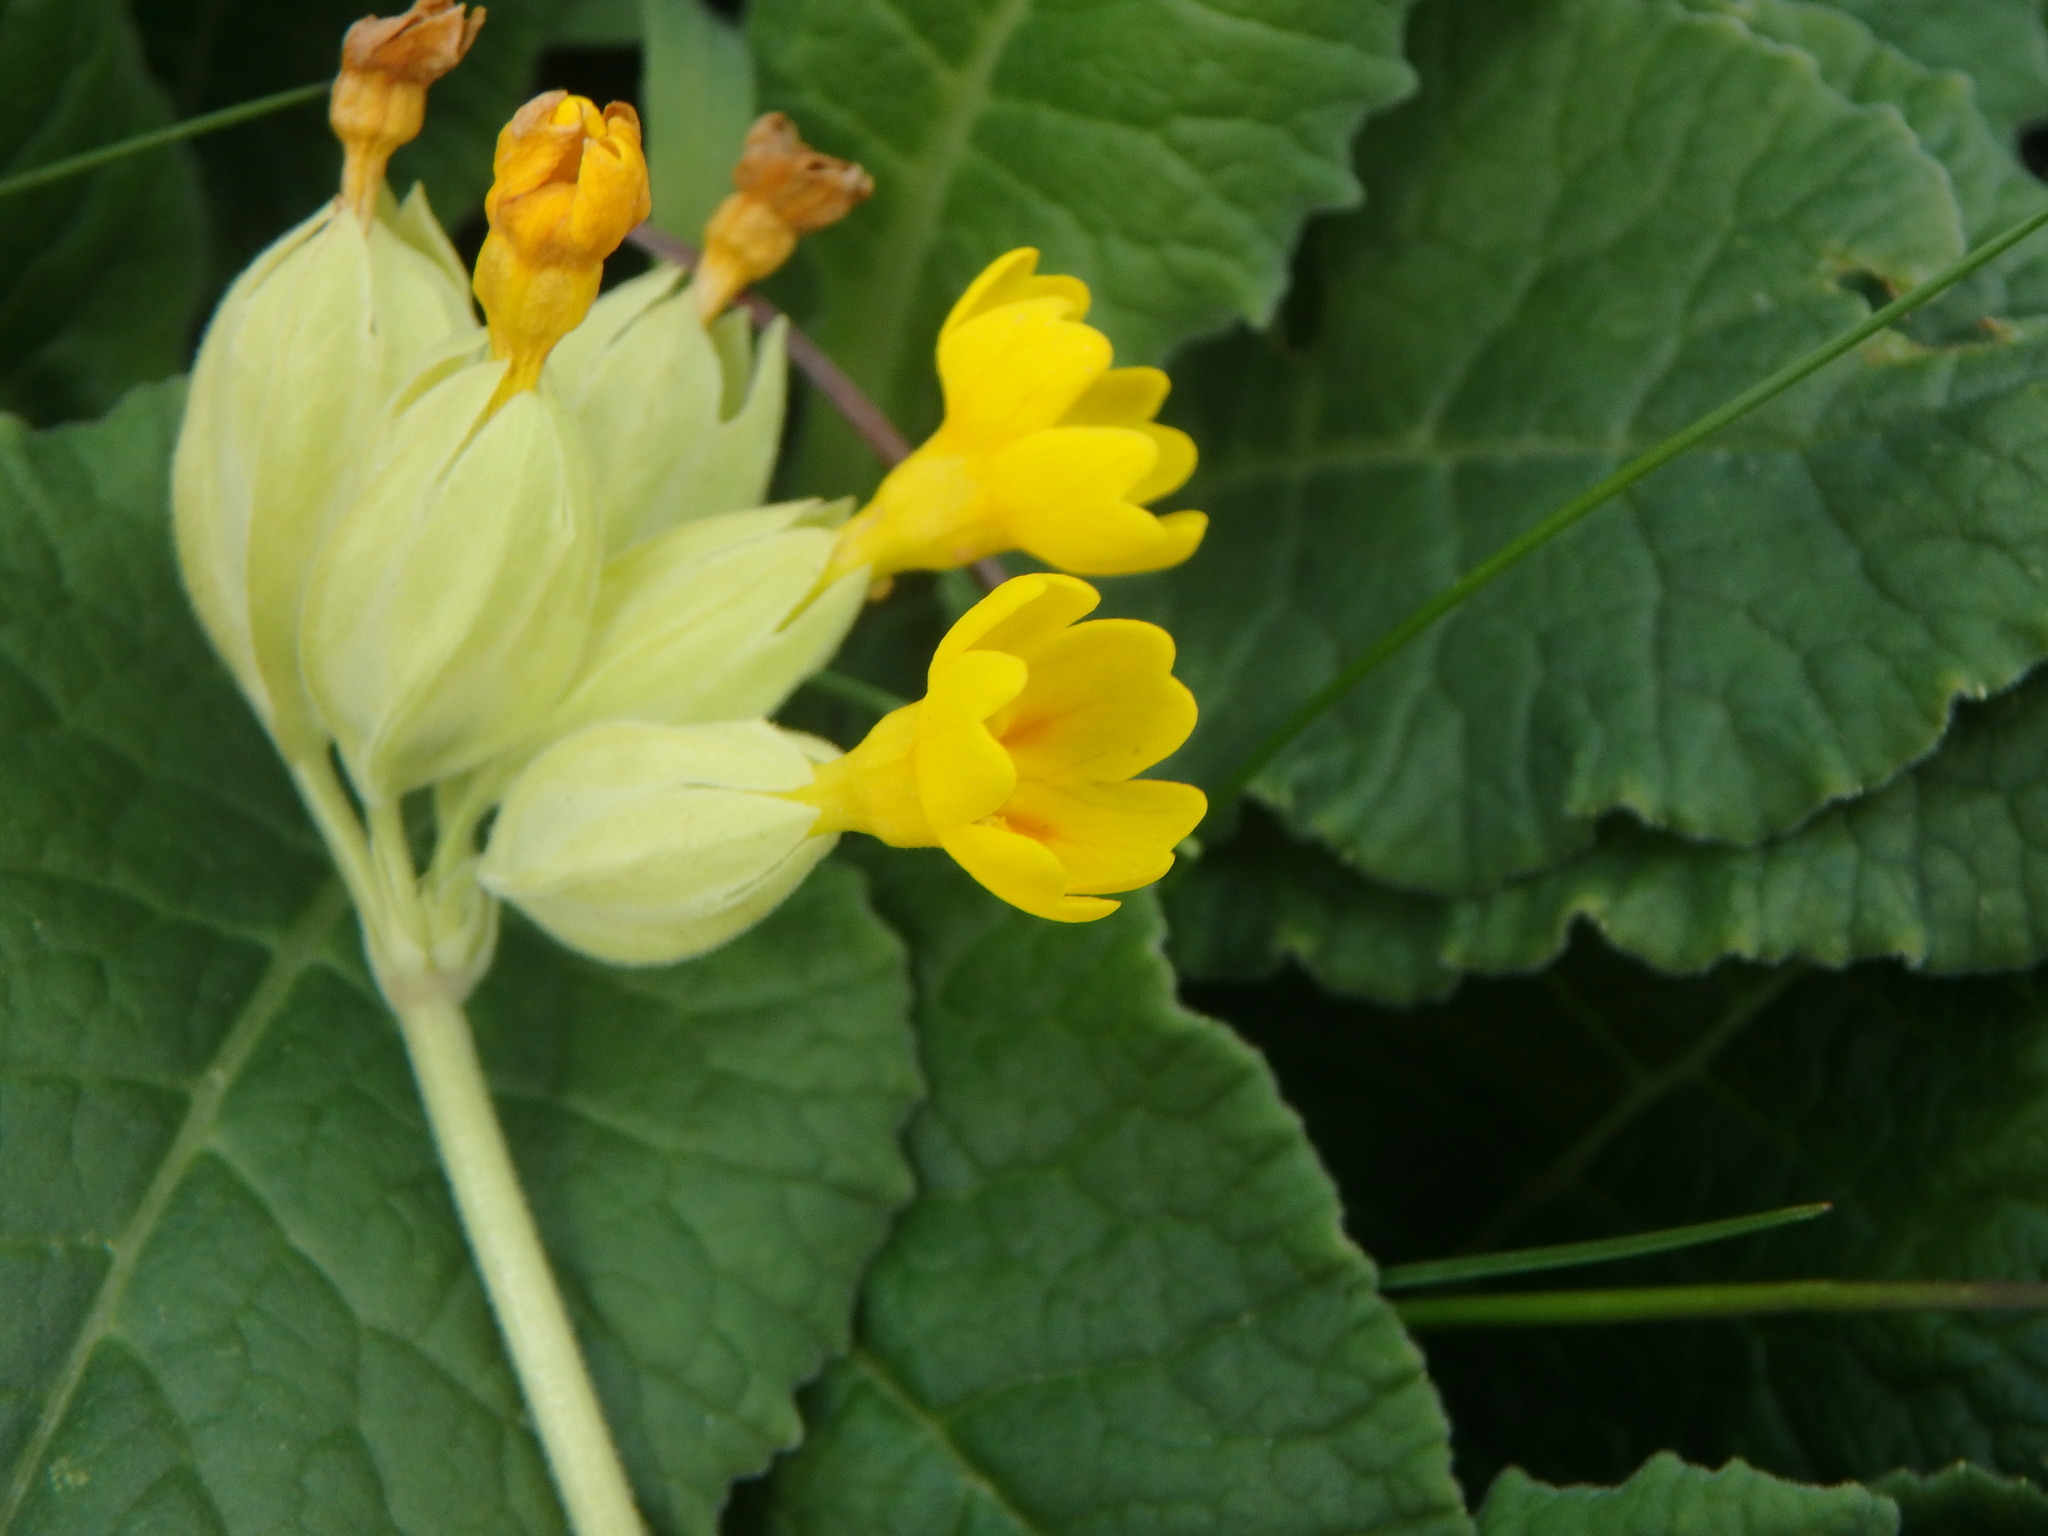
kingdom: Plantae
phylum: Tracheophyta
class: Magnoliopsida
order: Ericales
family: Primulaceae
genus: Primula
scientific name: Primula veris
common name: Cowslip
